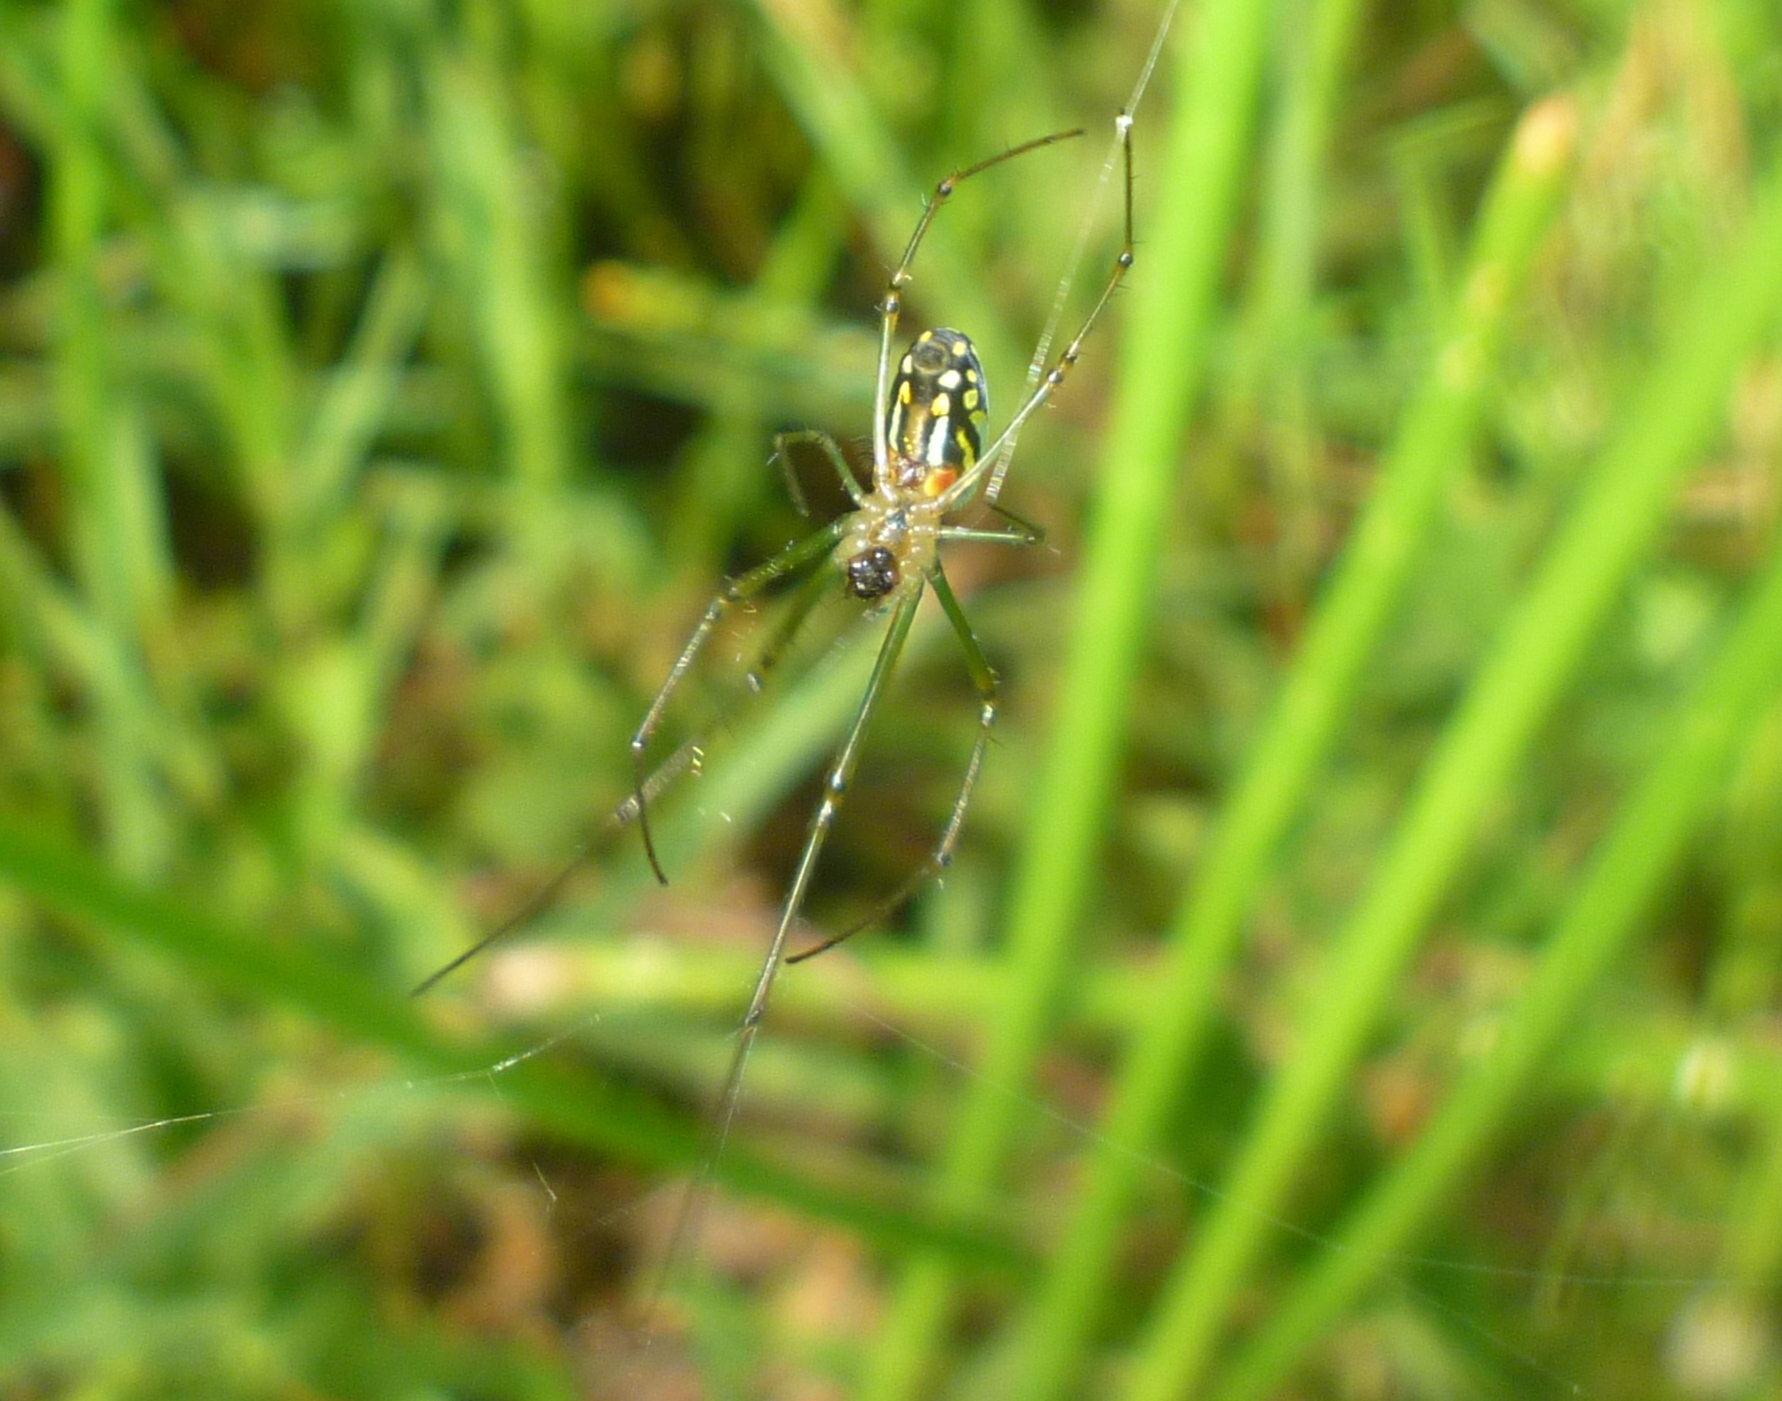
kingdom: Animalia
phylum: Arthropoda
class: Arachnida
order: Araneae
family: Tetragnathidae
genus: Leucauge
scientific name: Leucauge argyra
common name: Longjawed orb weavers
